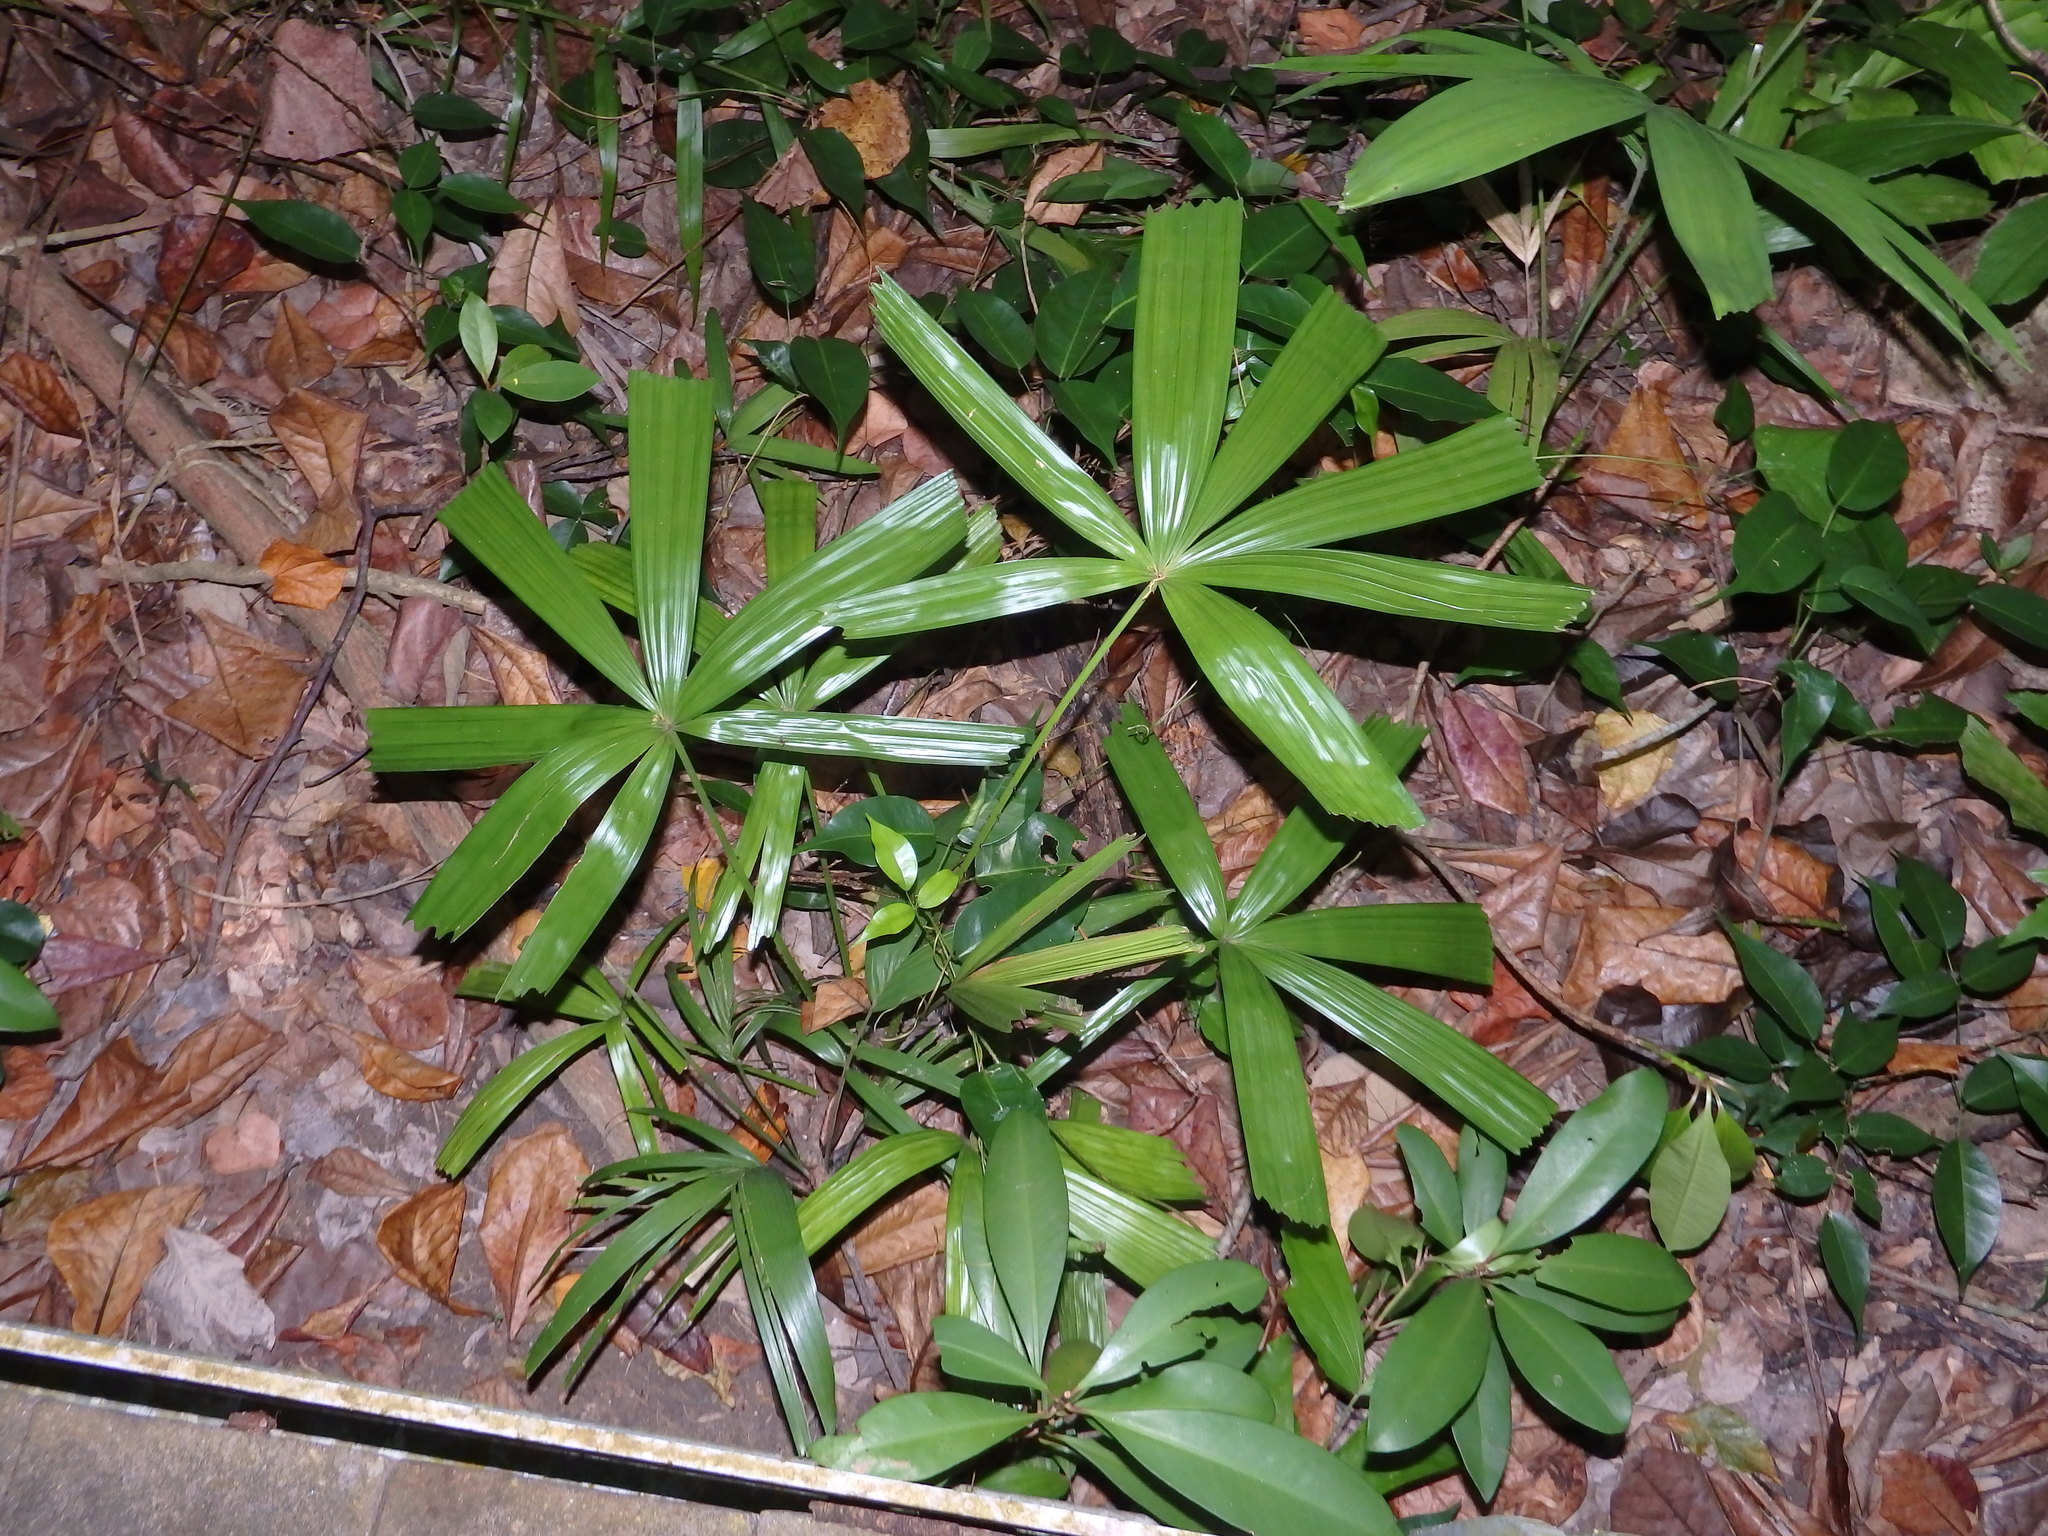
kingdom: Plantae
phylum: Tracheophyta
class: Liliopsida
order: Arecales
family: Arecaceae
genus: Licuala
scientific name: Licuala spinosa
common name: Mangrove fan palm
